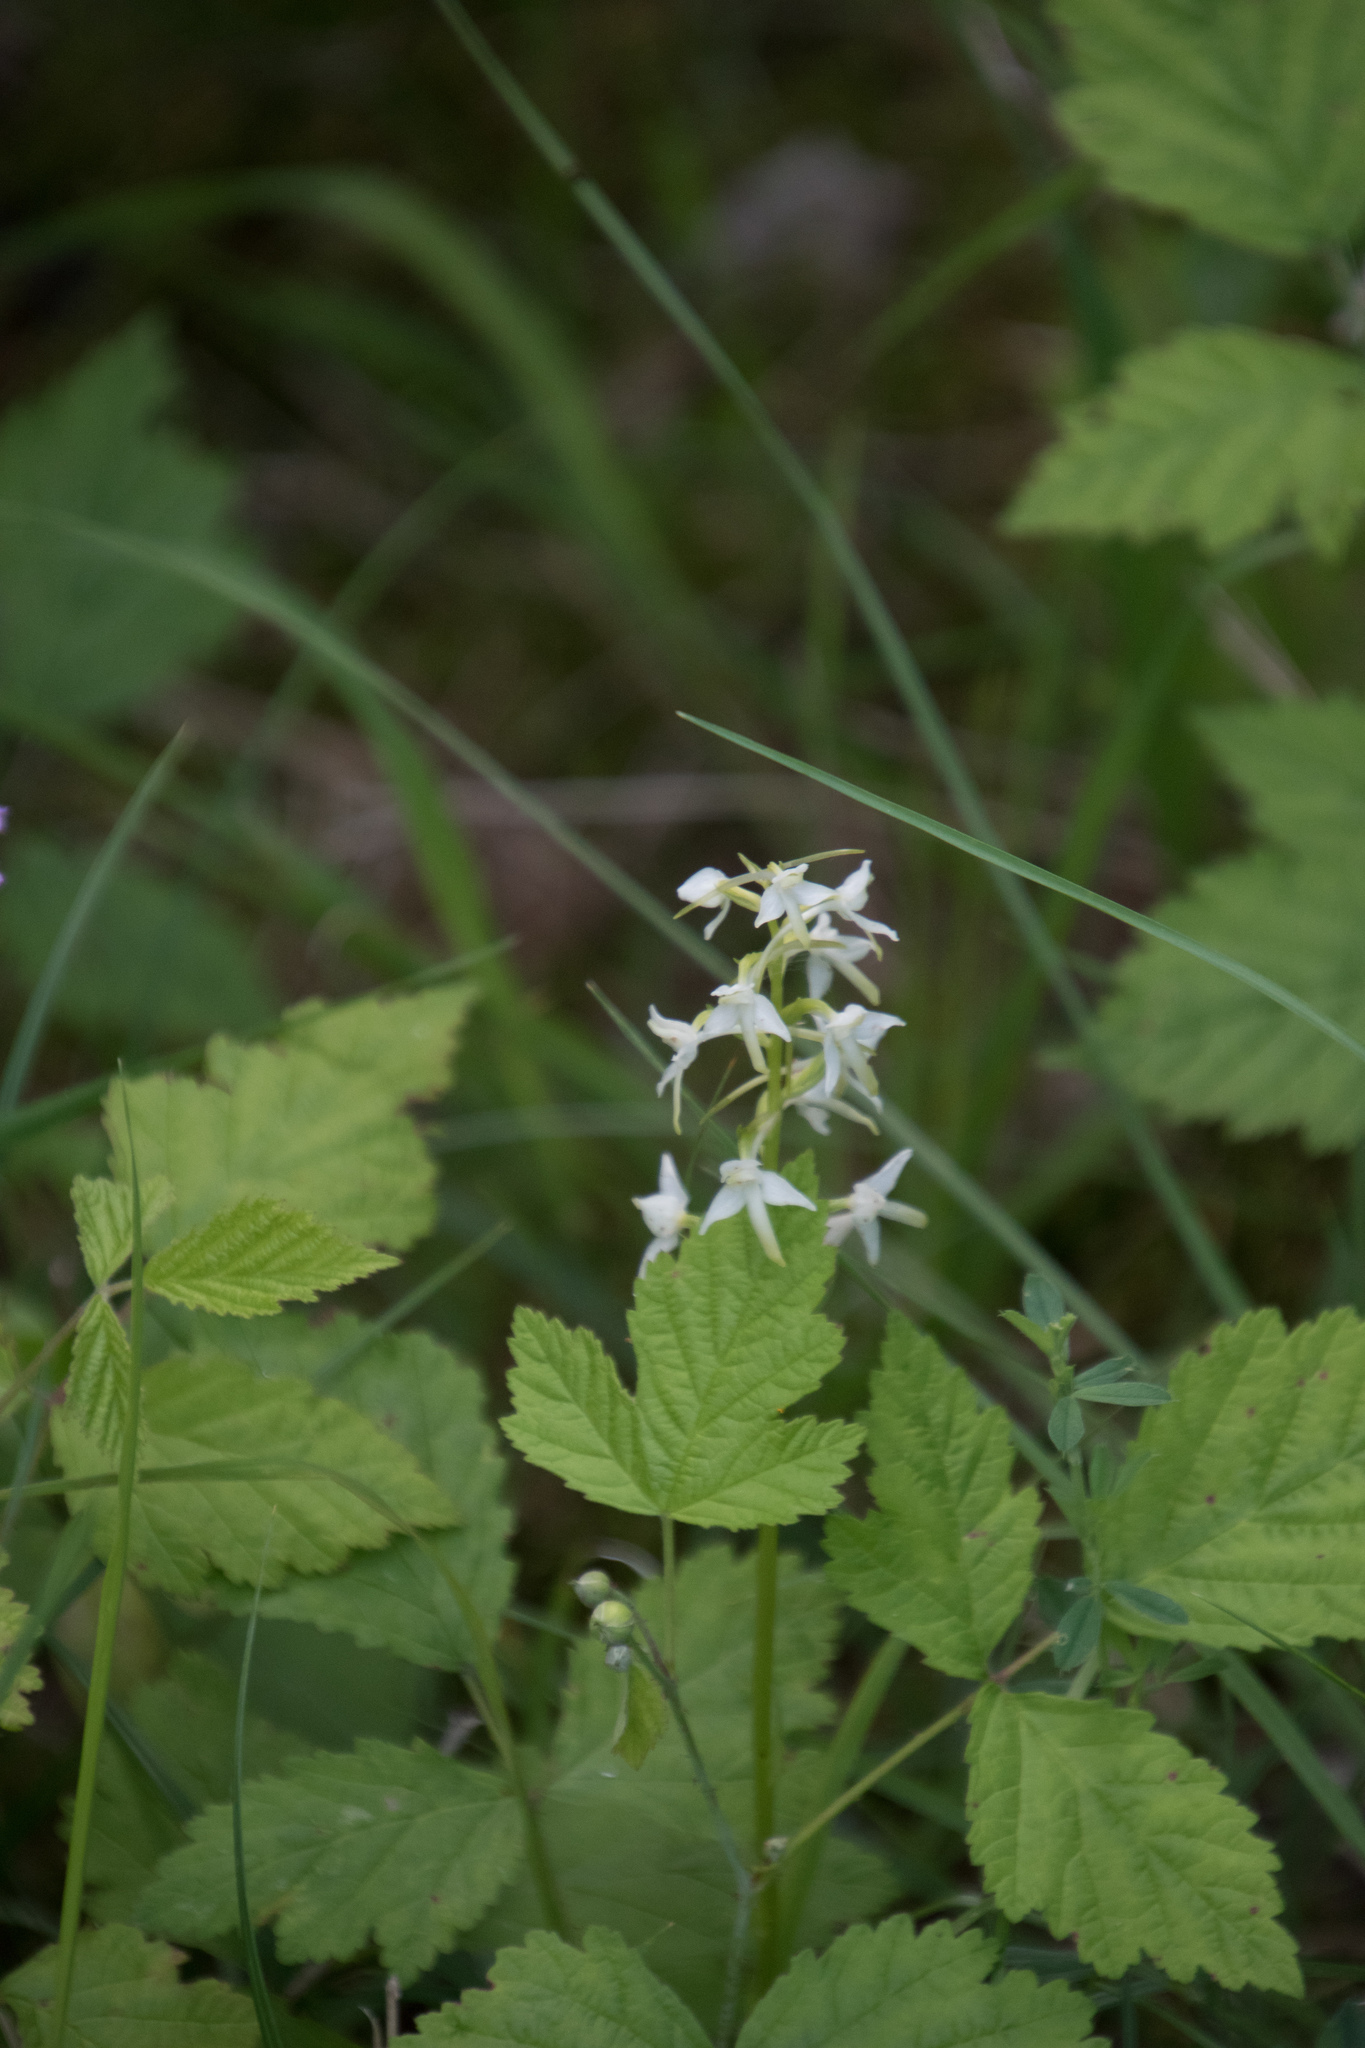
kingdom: Plantae
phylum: Tracheophyta
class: Liliopsida
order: Asparagales
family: Orchidaceae
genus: Platanthera
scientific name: Platanthera bifolia
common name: Lesser butterfly-orchid
